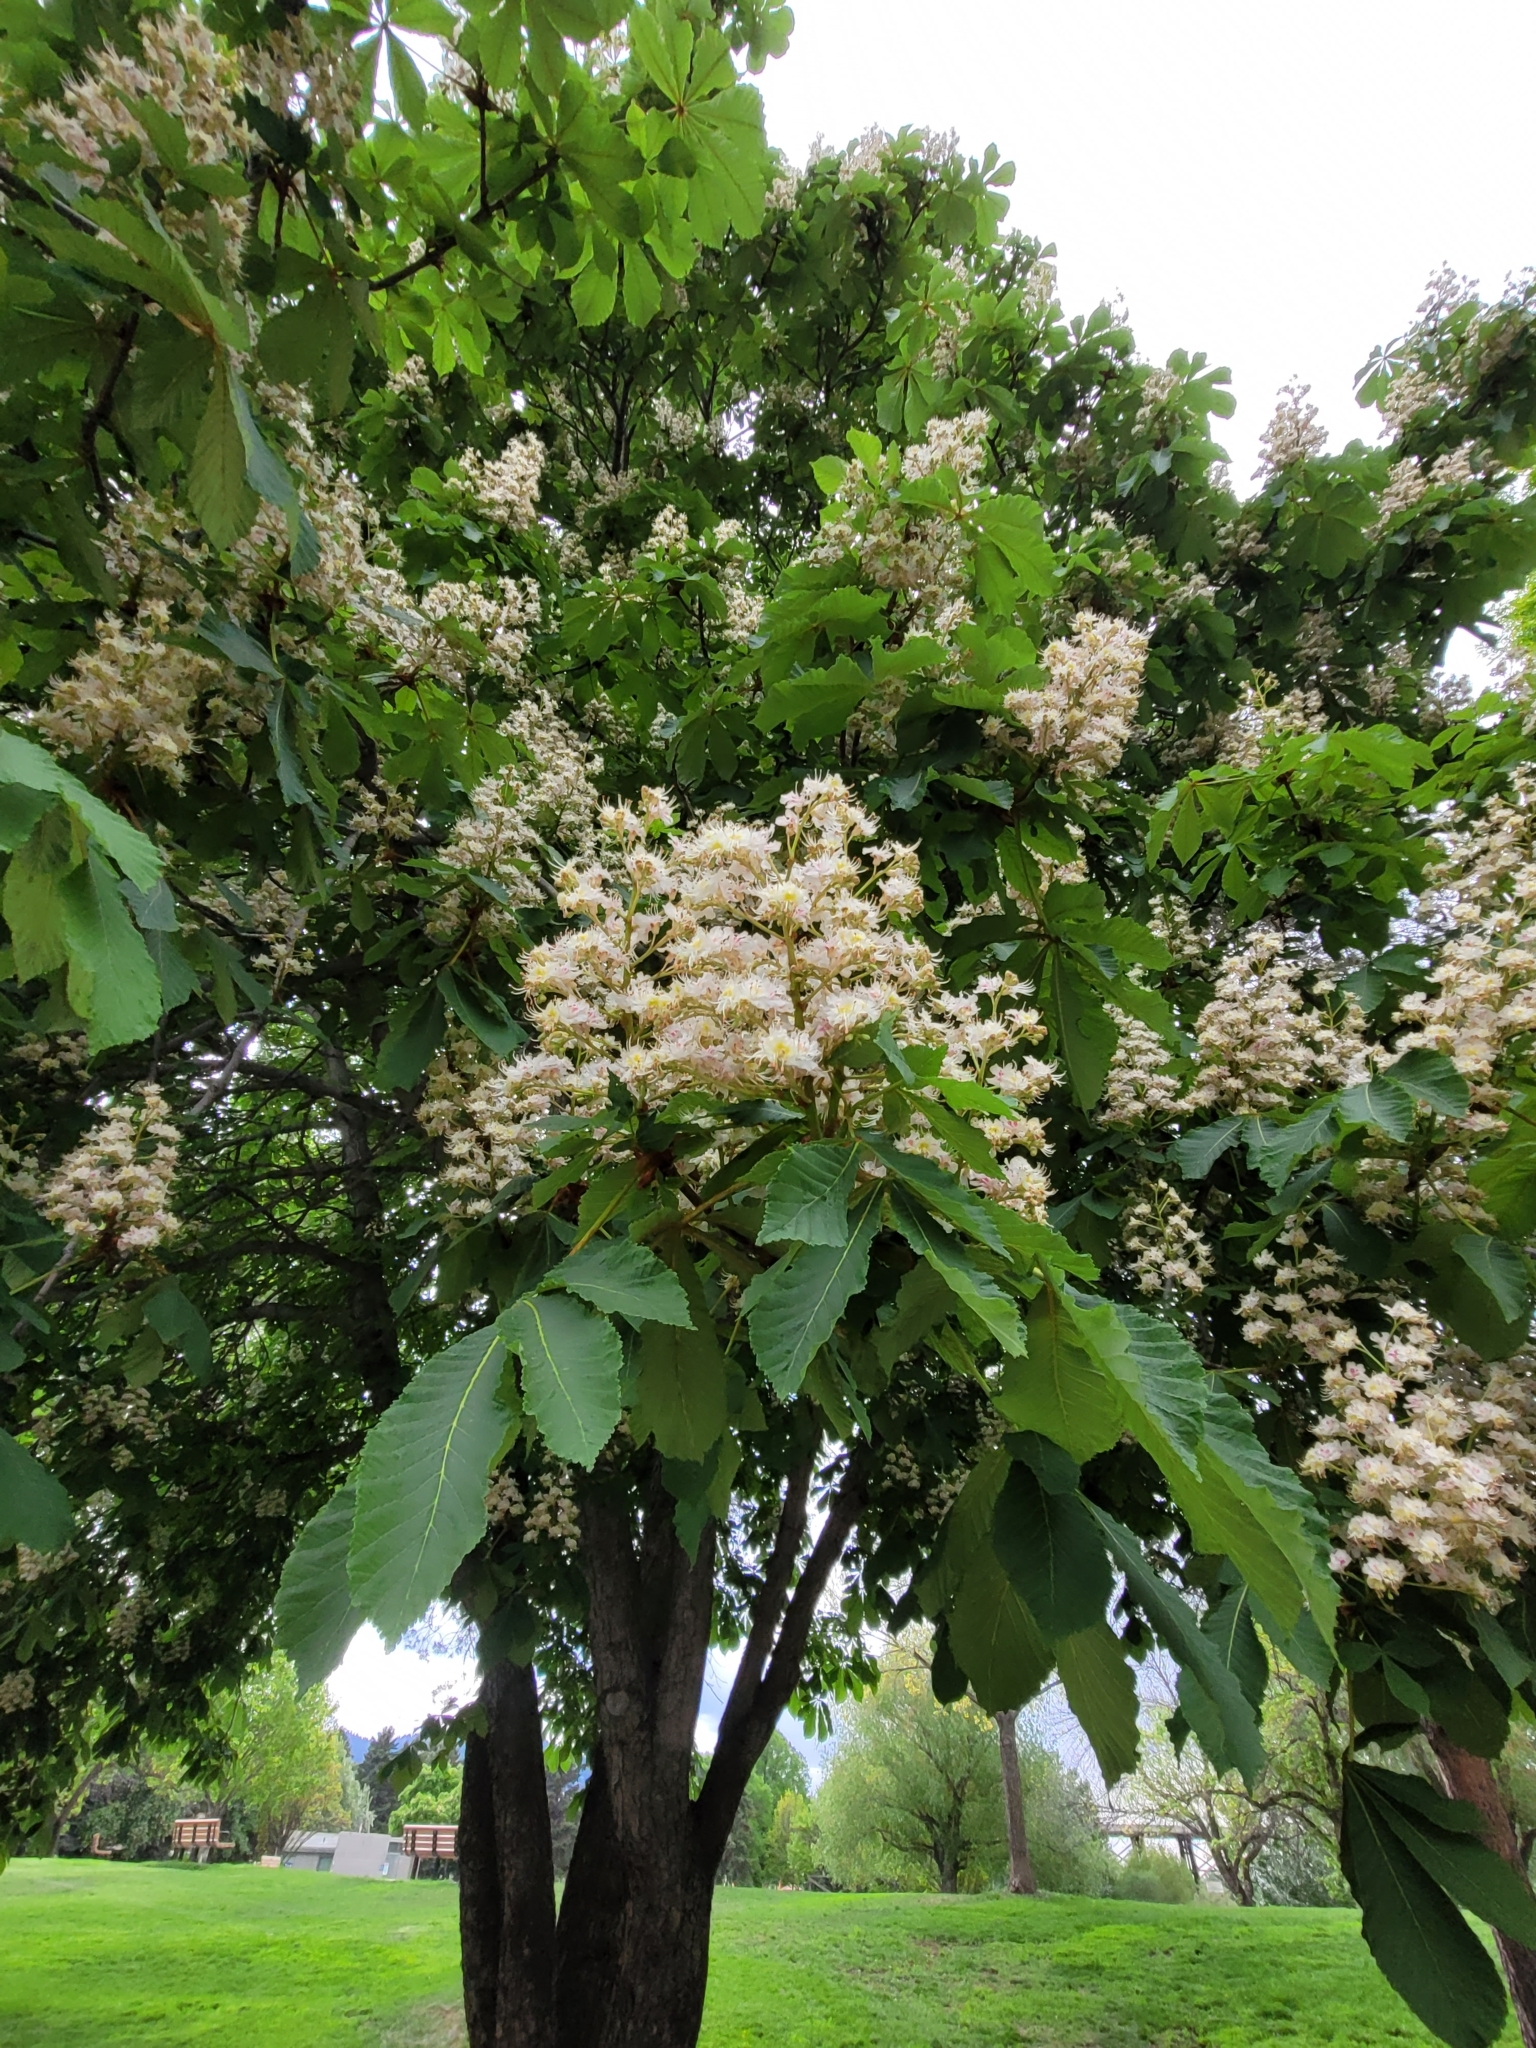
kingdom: Plantae
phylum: Tracheophyta
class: Magnoliopsida
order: Sapindales
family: Sapindaceae
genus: Aesculus
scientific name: Aesculus hippocastanum
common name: Horse-chestnut
